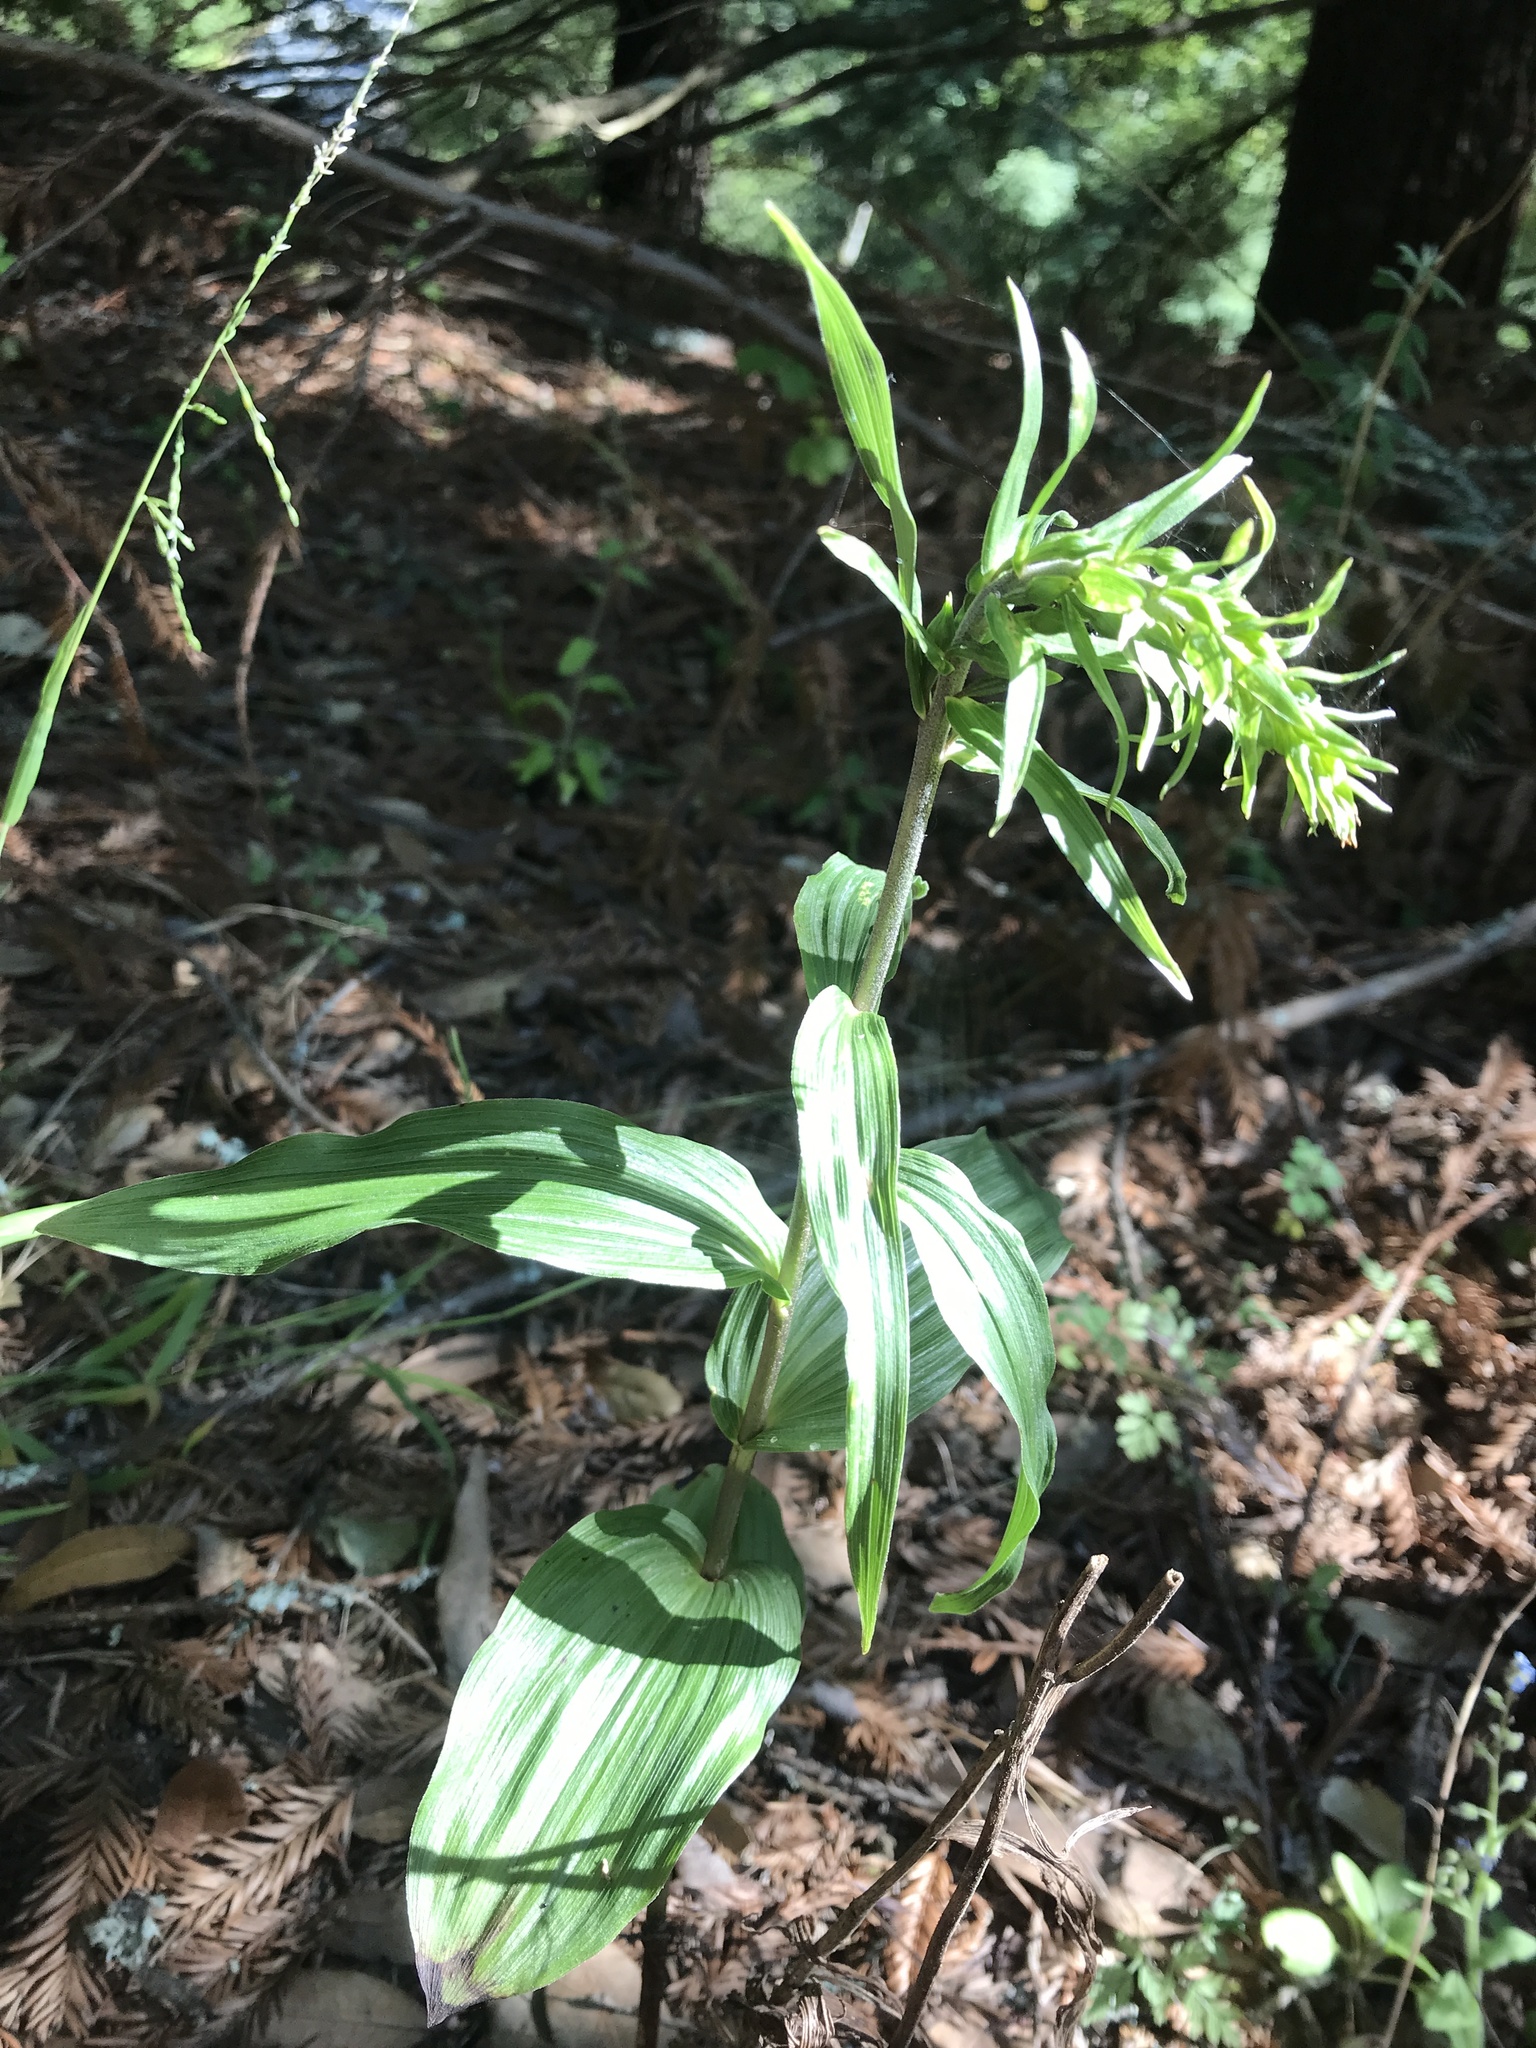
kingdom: Plantae
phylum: Tracheophyta
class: Liliopsida
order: Asparagales
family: Orchidaceae
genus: Epipactis
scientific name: Epipactis helleborine
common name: Broad-leaved helleborine
